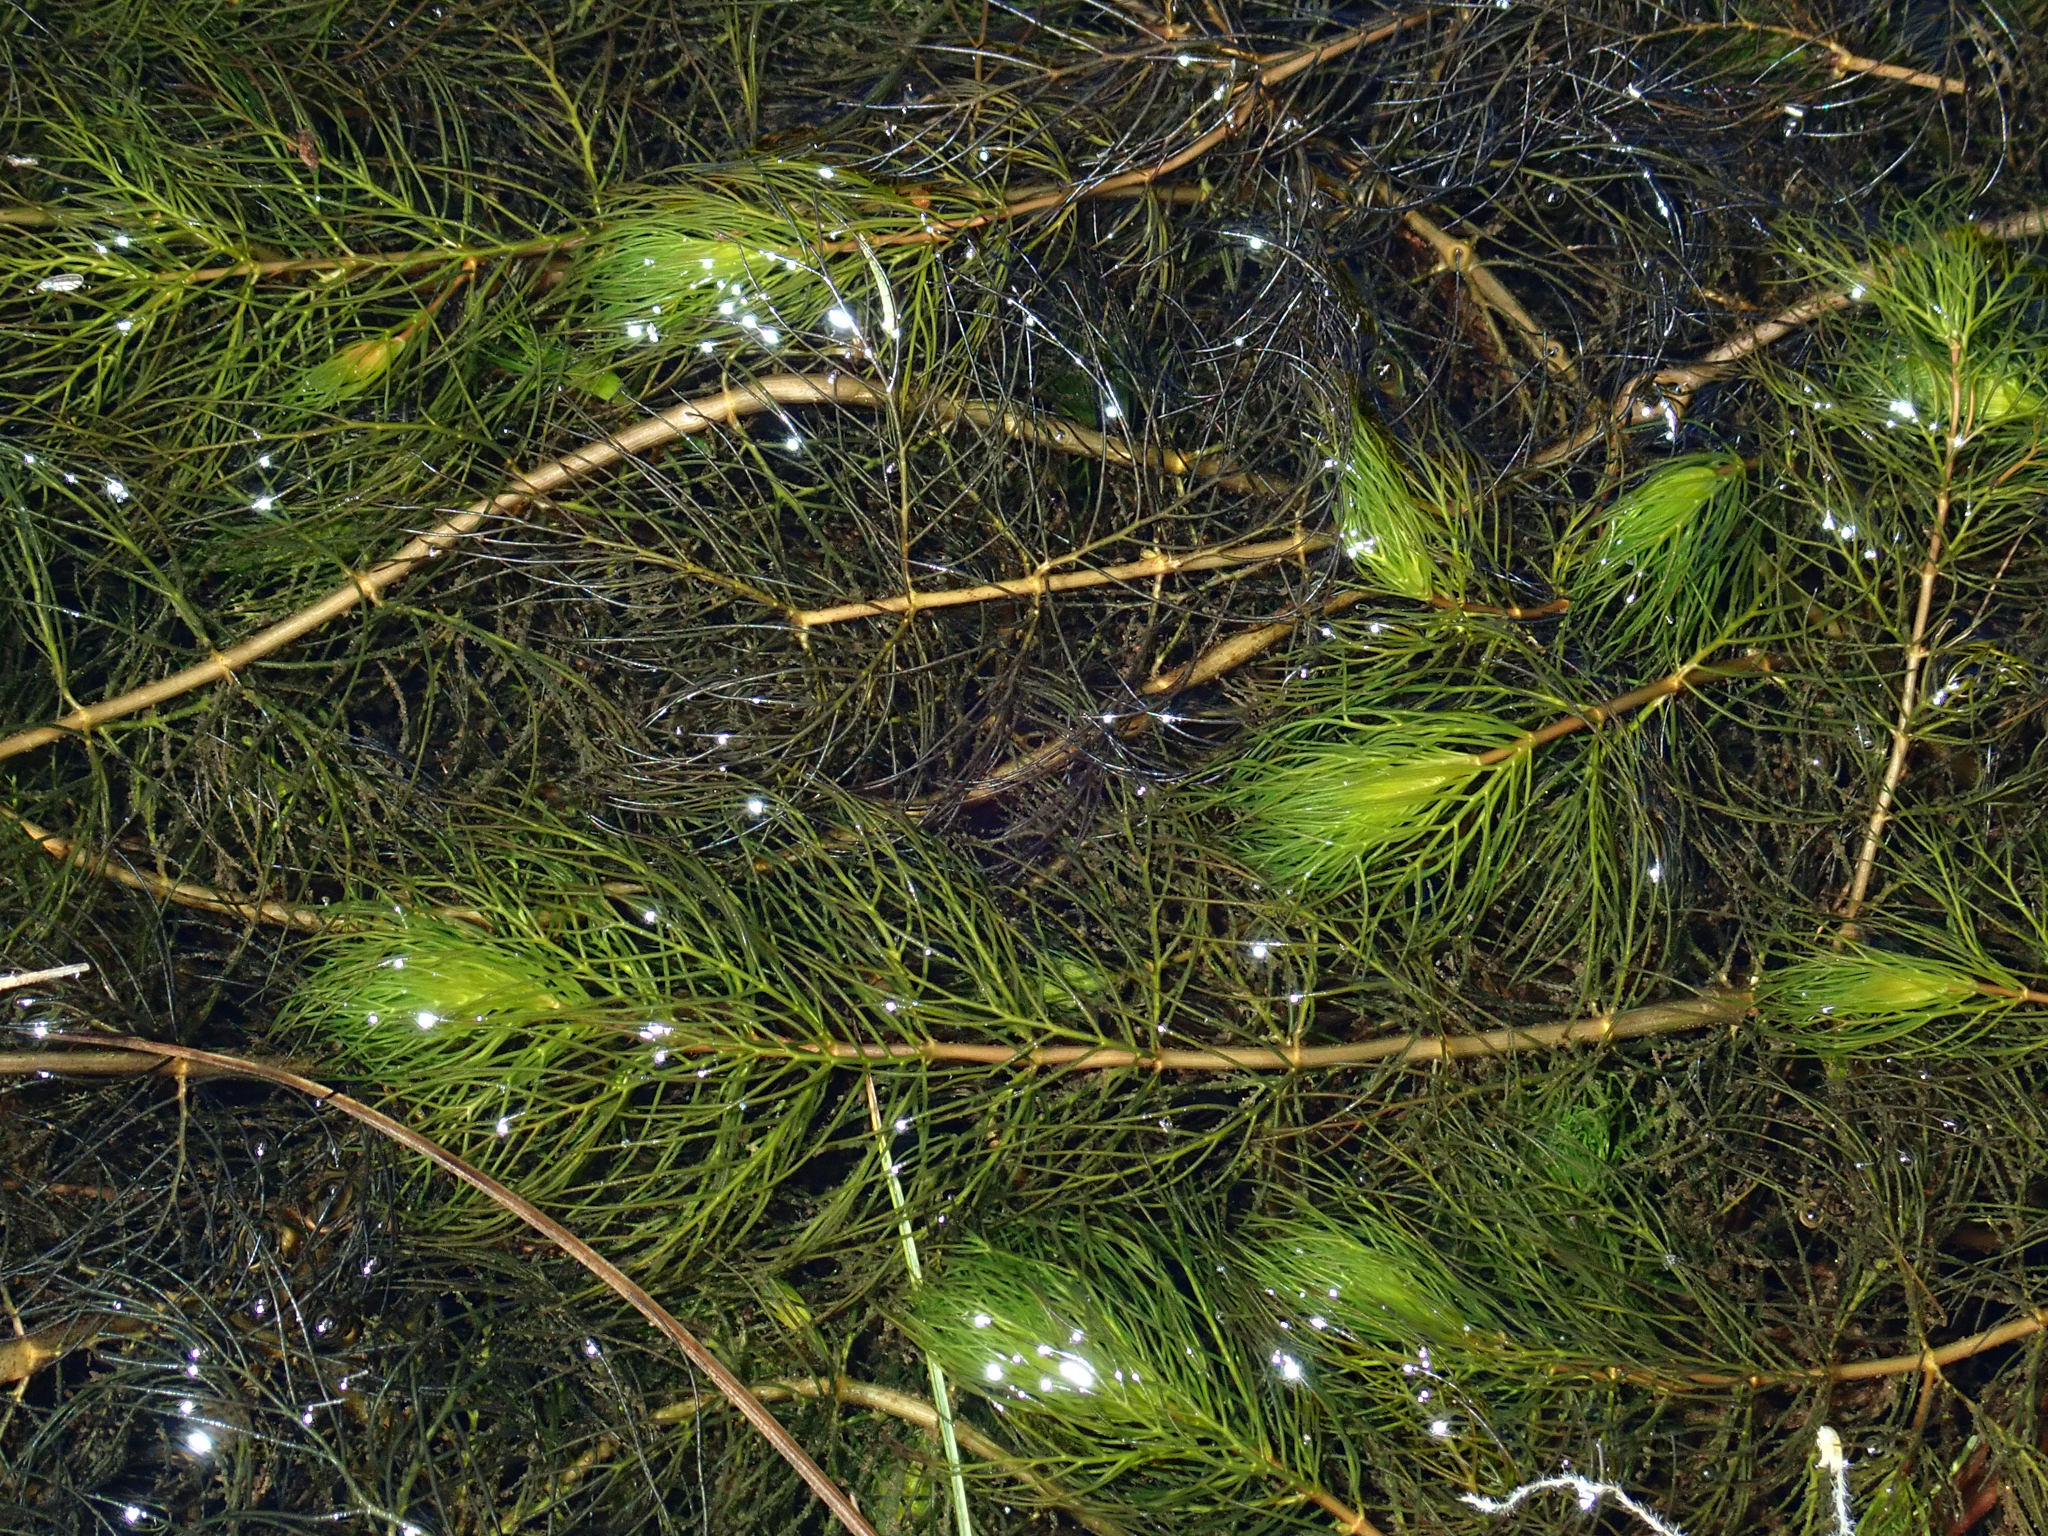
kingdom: Plantae
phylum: Tracheophyta
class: Magnoliopsida
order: Saxifragales
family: Haloragaceae
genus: Myriophyllum
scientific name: Myriophyllum quitense
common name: Andean water milfoil
